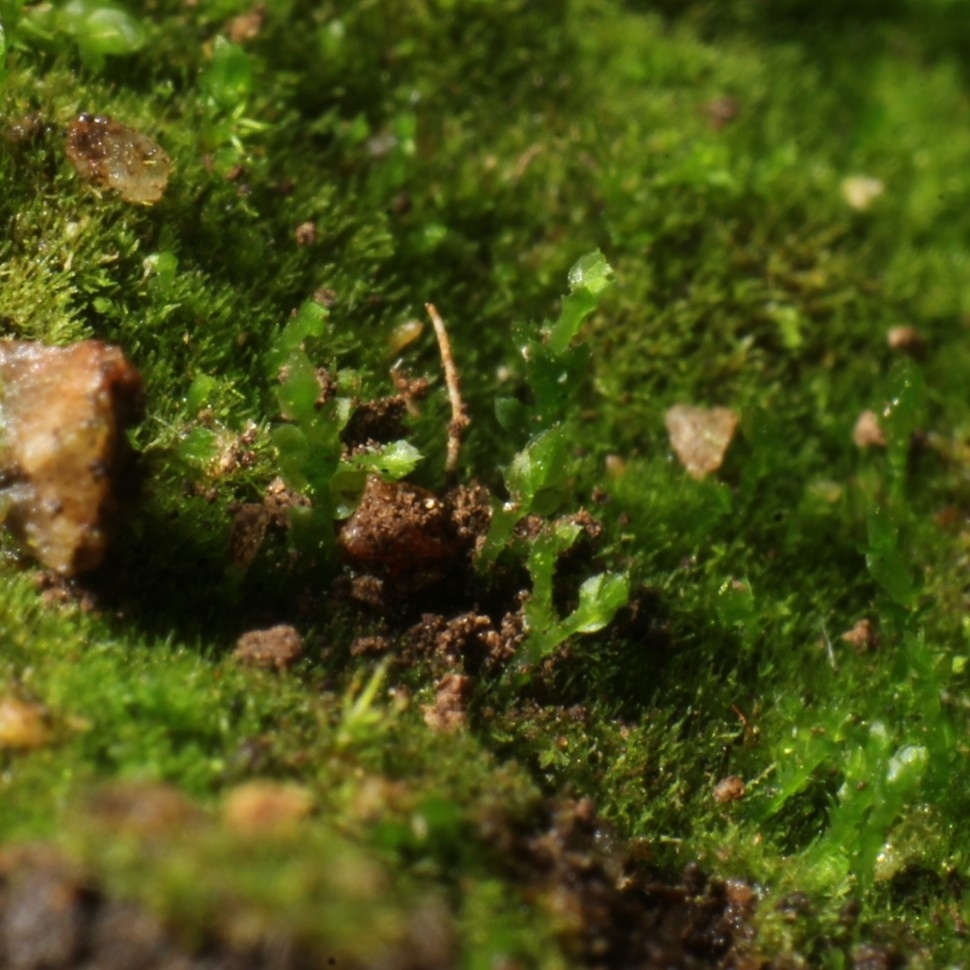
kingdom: Plantae
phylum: Bryophyta
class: Bryopsida
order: Pottiales
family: Mitteniaceae
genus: Mittenia
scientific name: Mittenia plumula
